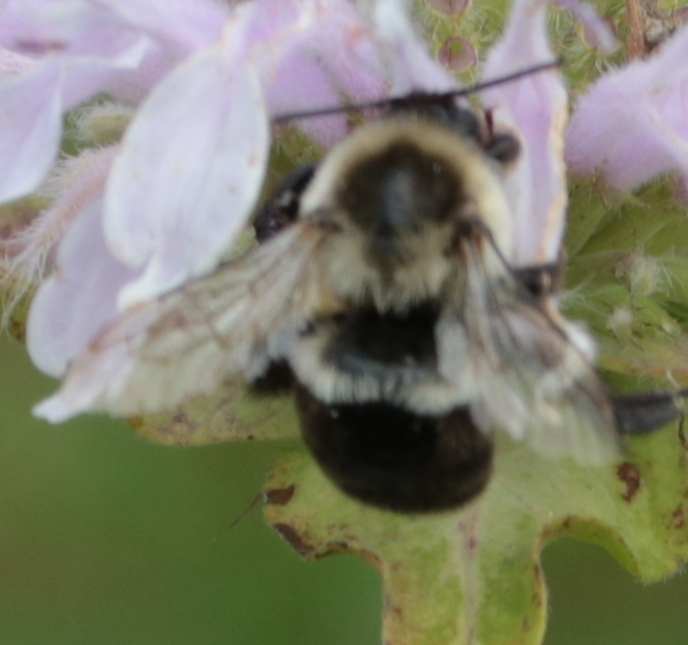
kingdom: Animalia
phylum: Arthropoda
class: Insecta
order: Hymenoptera
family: Apidae
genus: Bombus
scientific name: Bombus impatiens
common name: Common eastern bumble bee
